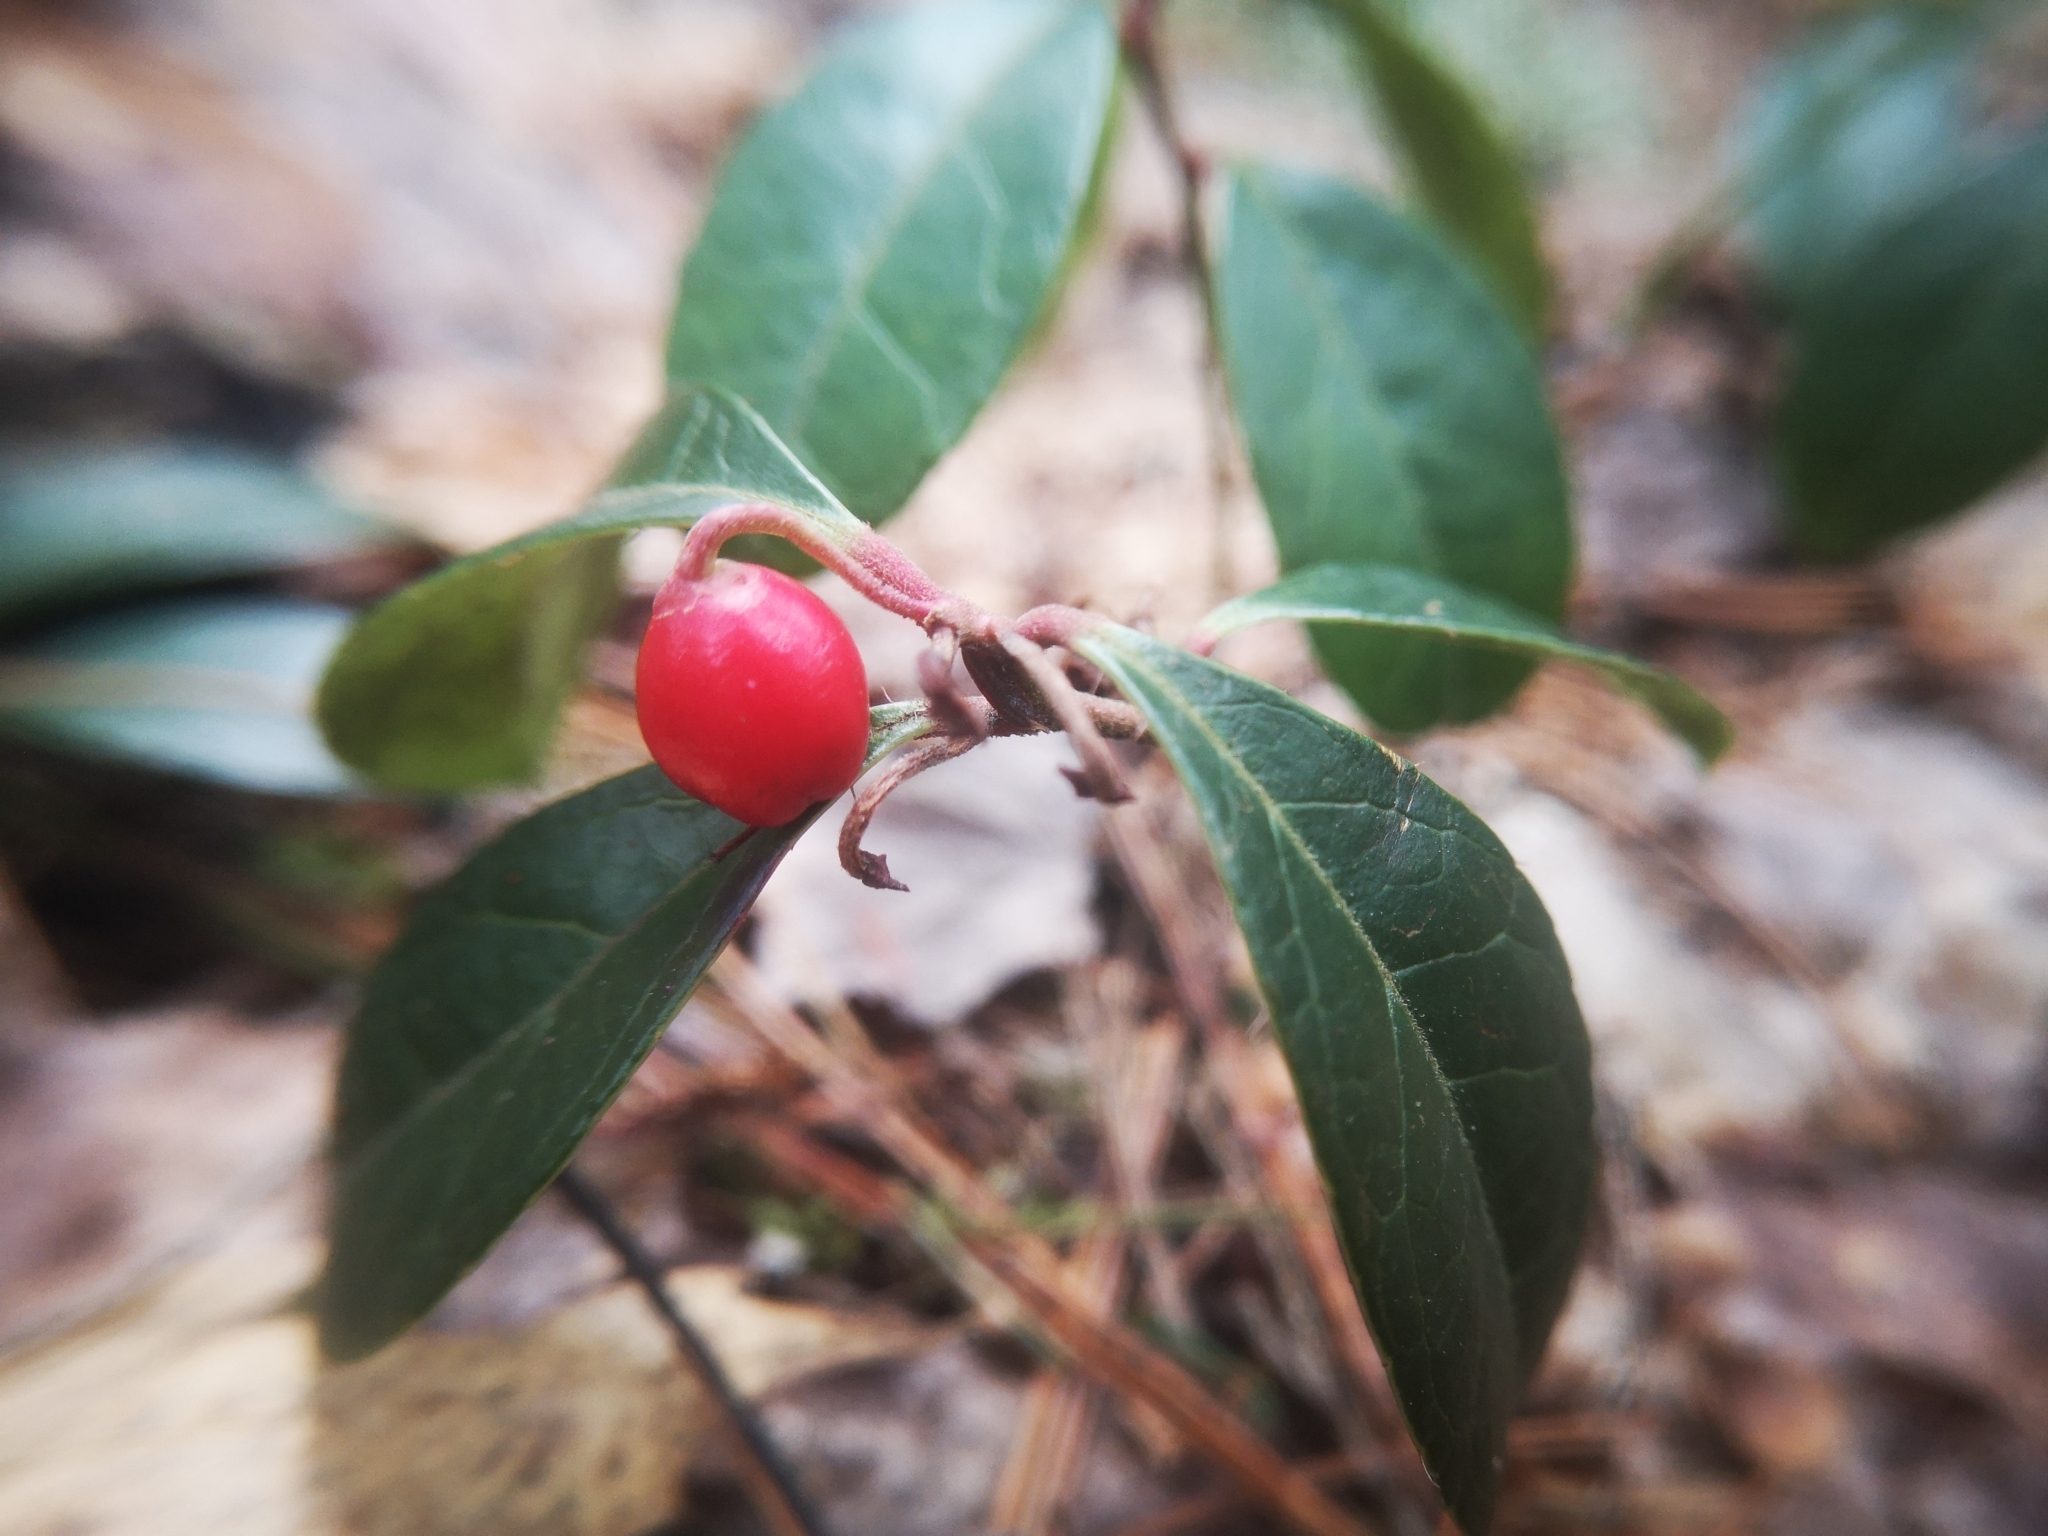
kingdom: Plantae
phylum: Tracheophyta
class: Magnoliopsida
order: Ericales
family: Ericaceae
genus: Gaultheria
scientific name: Gaultheria procumbens
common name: Checkerberry
